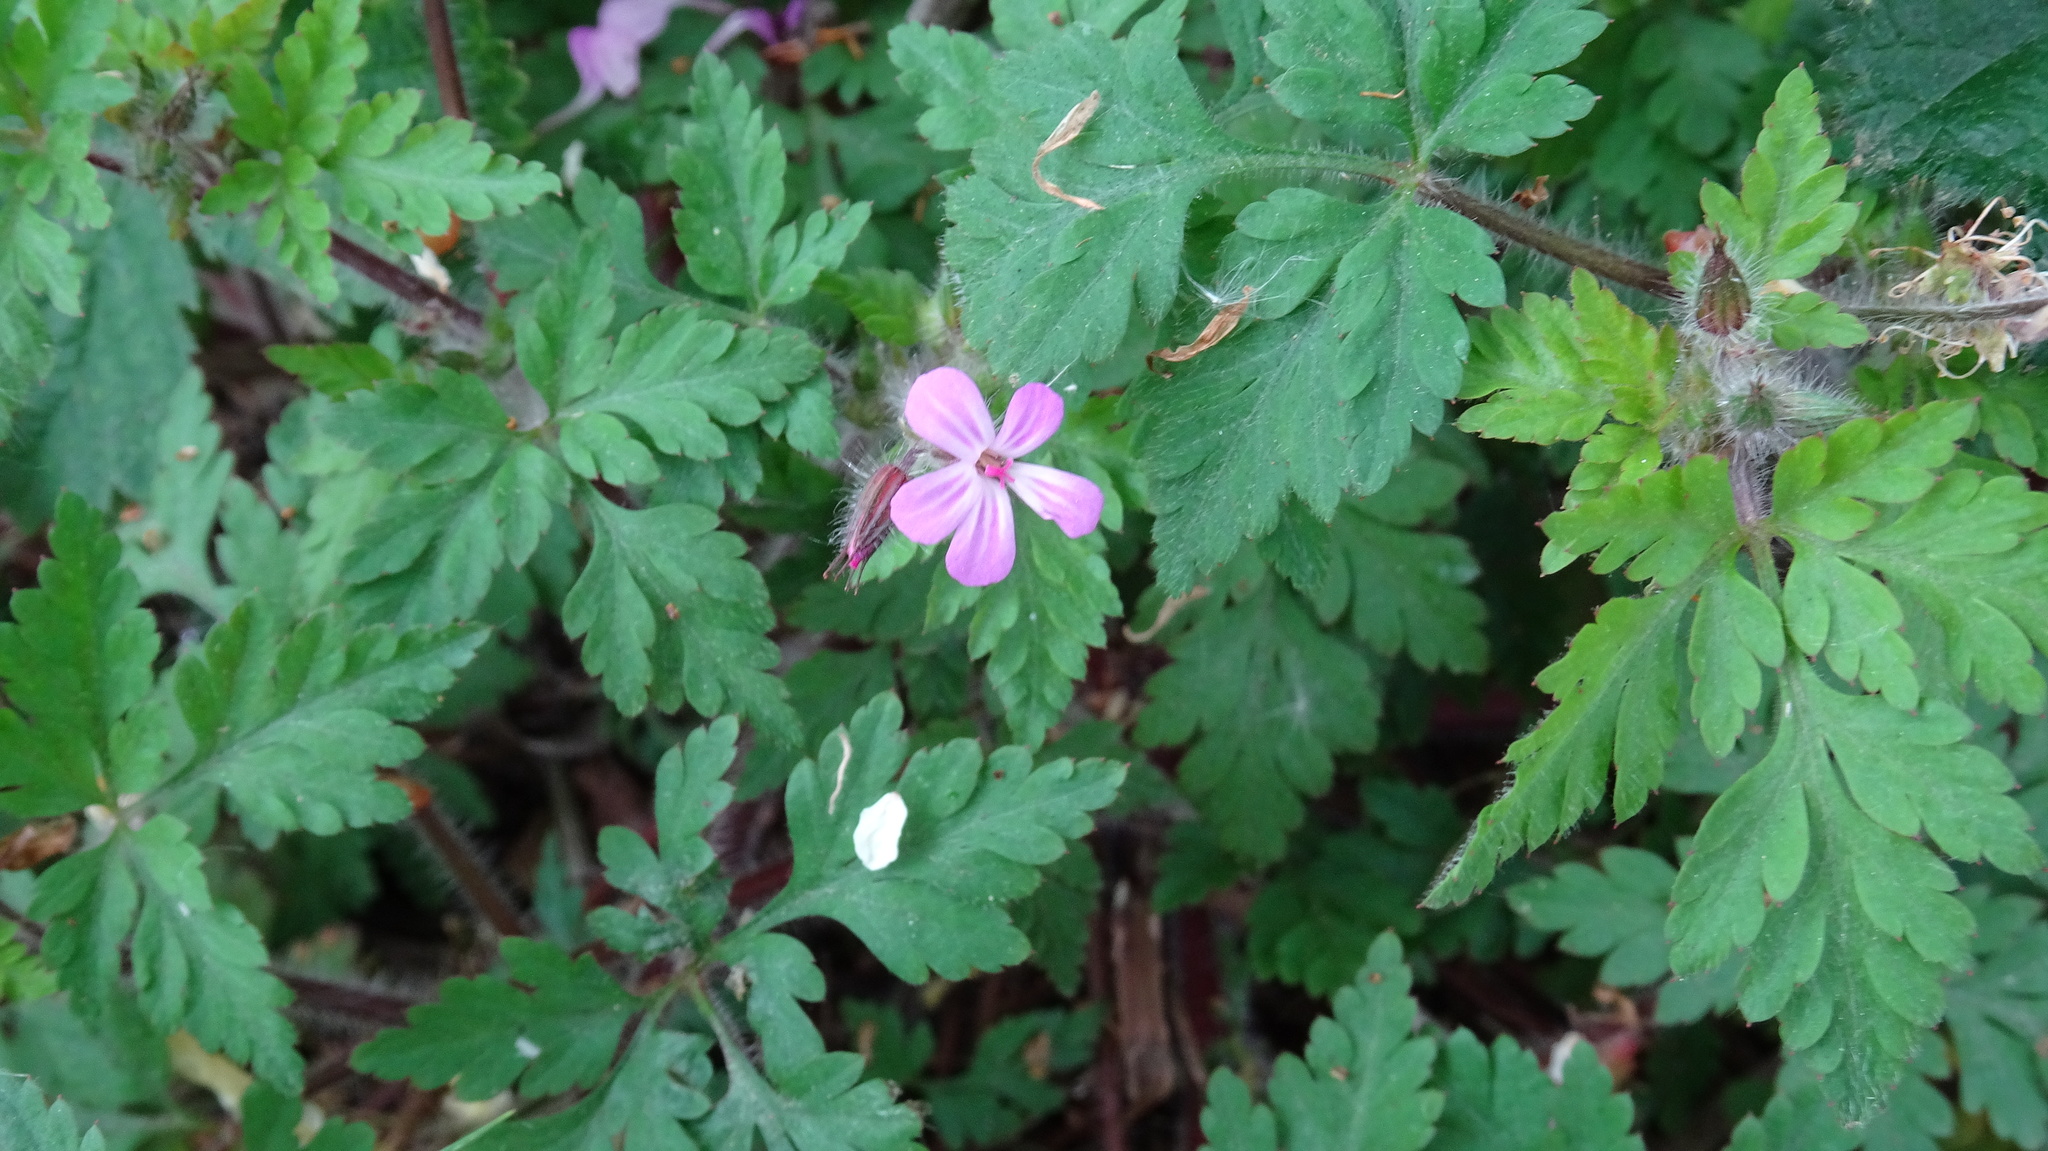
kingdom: Plantae
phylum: Tracheophyta
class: Magnoliopsida
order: Geraniales
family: Geraniaceae
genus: Geranium
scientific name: Geranium robertianum
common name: Herb-robert
